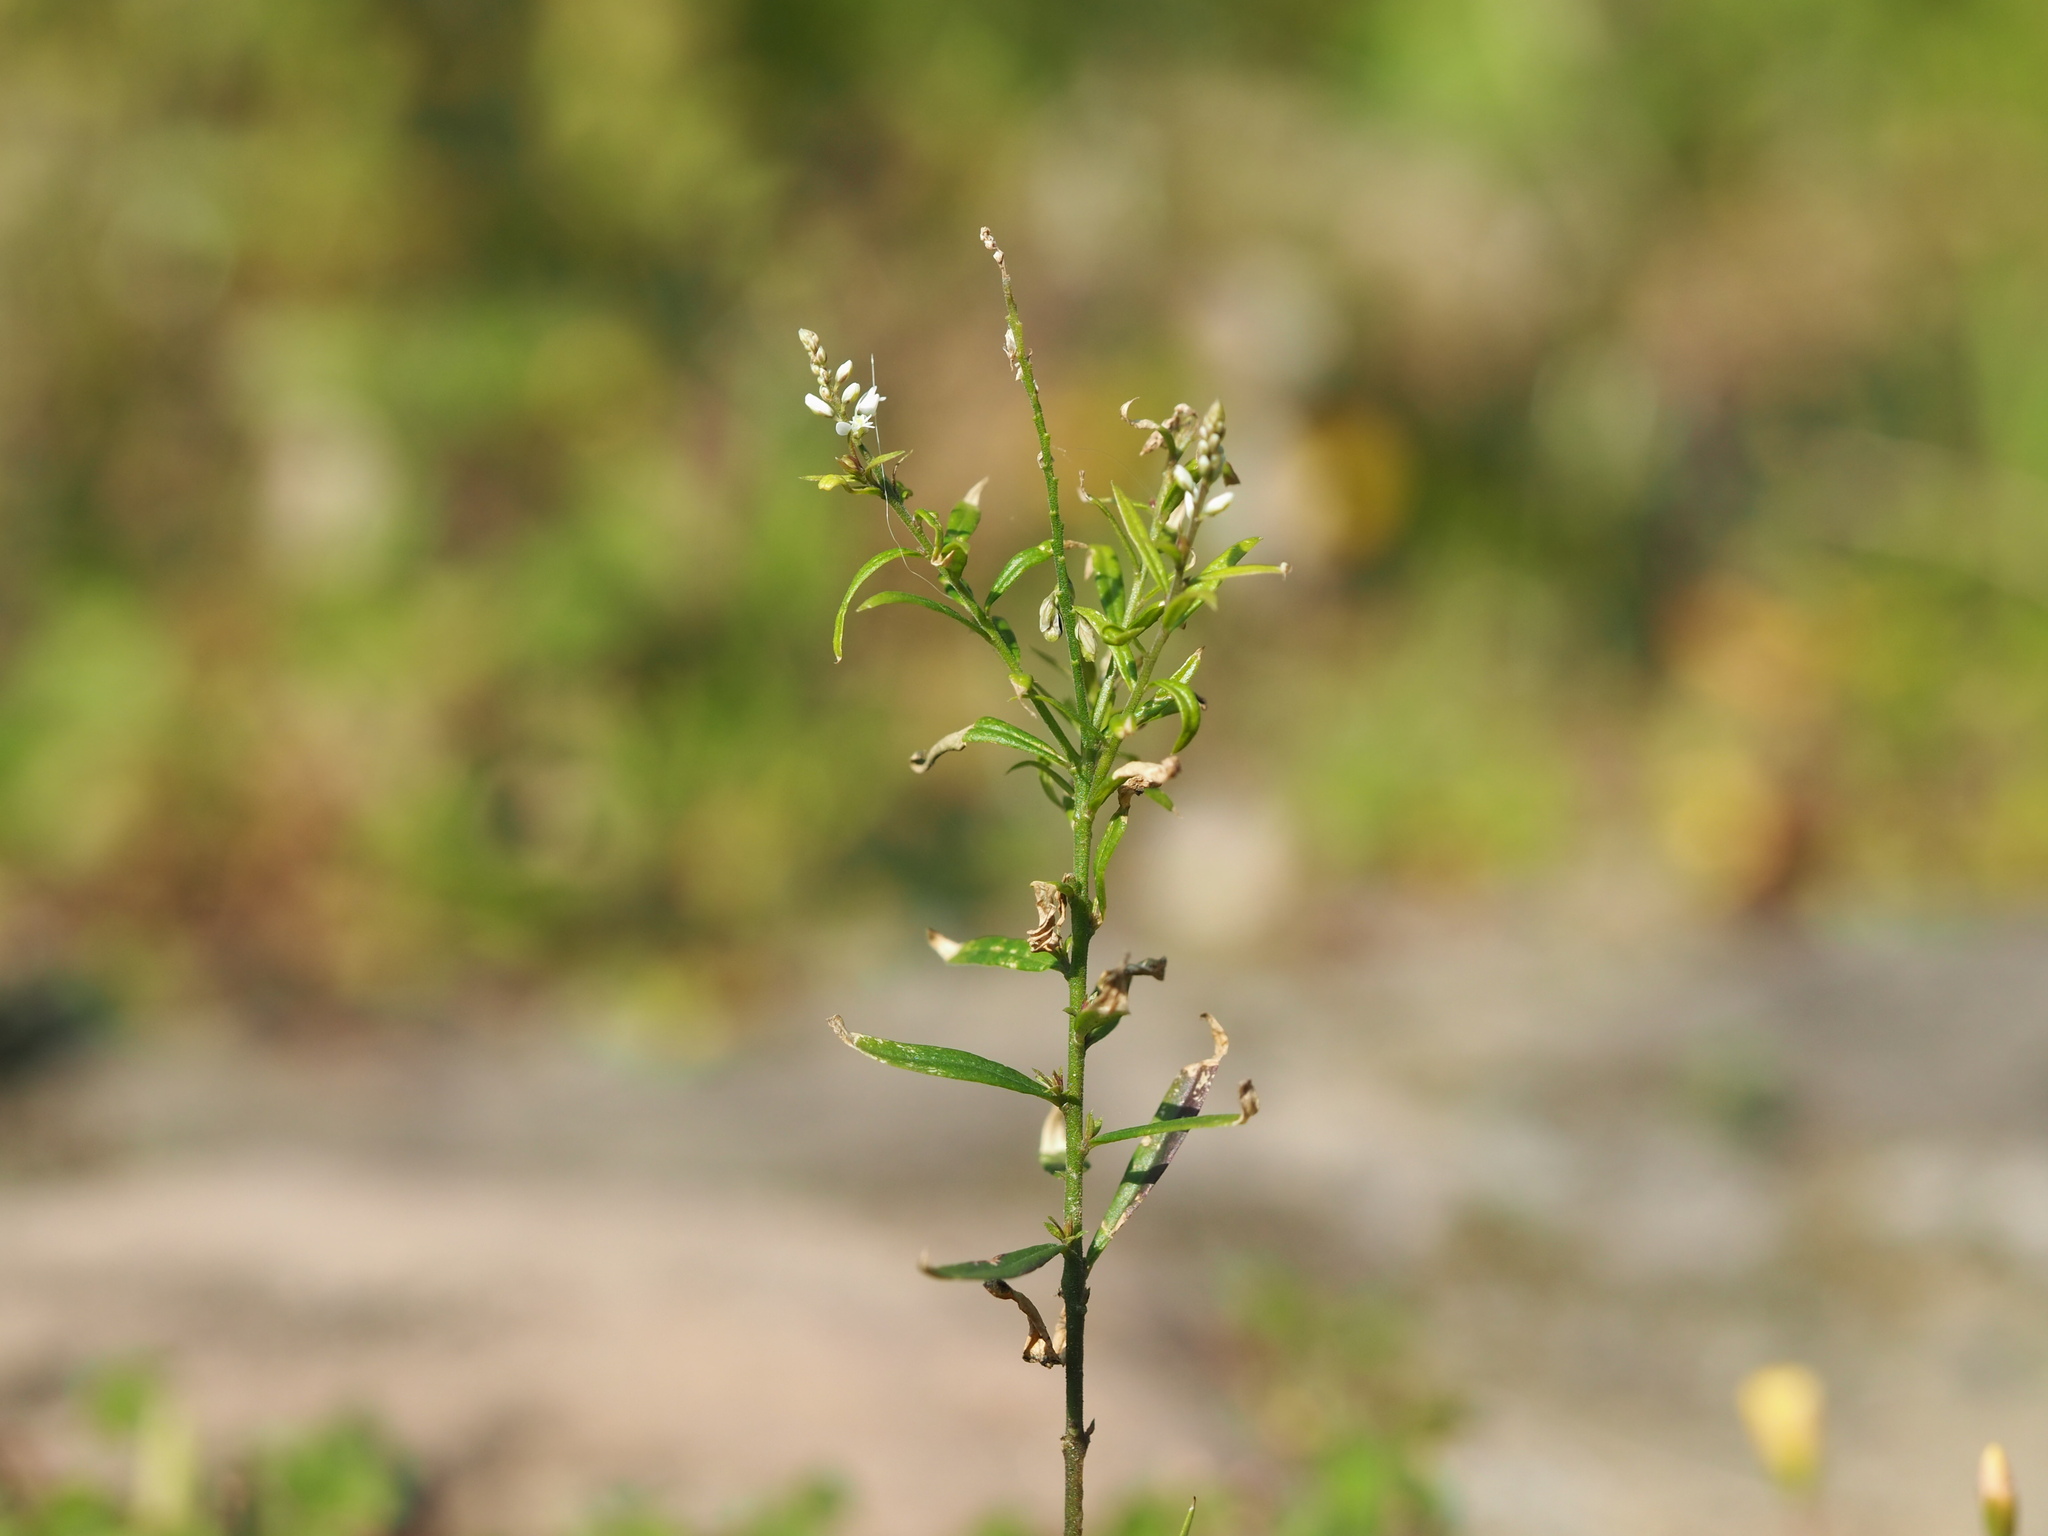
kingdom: Plantae
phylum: Tracheophyta
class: Magnoliopsida
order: Fabales
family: Polygalaceae
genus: Polygala
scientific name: Polygala paniculata
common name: Orosne
